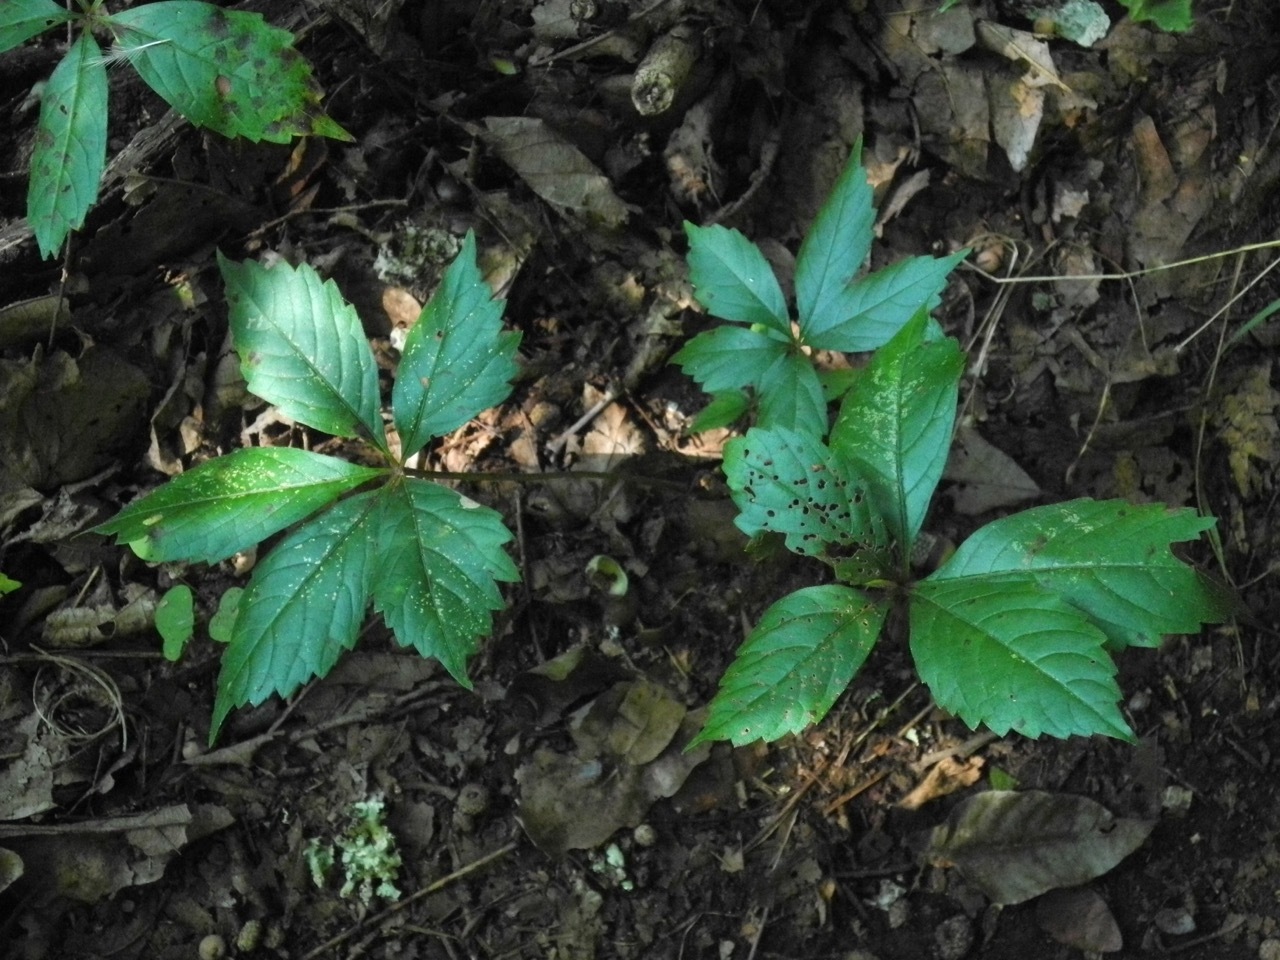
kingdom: Plantae
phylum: Tracheophyta
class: Magnoliopsida
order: Vitales
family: Vitaceae
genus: Parthenocissus
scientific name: Parthenocissus quinquefolia
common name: Virginia-creeper
